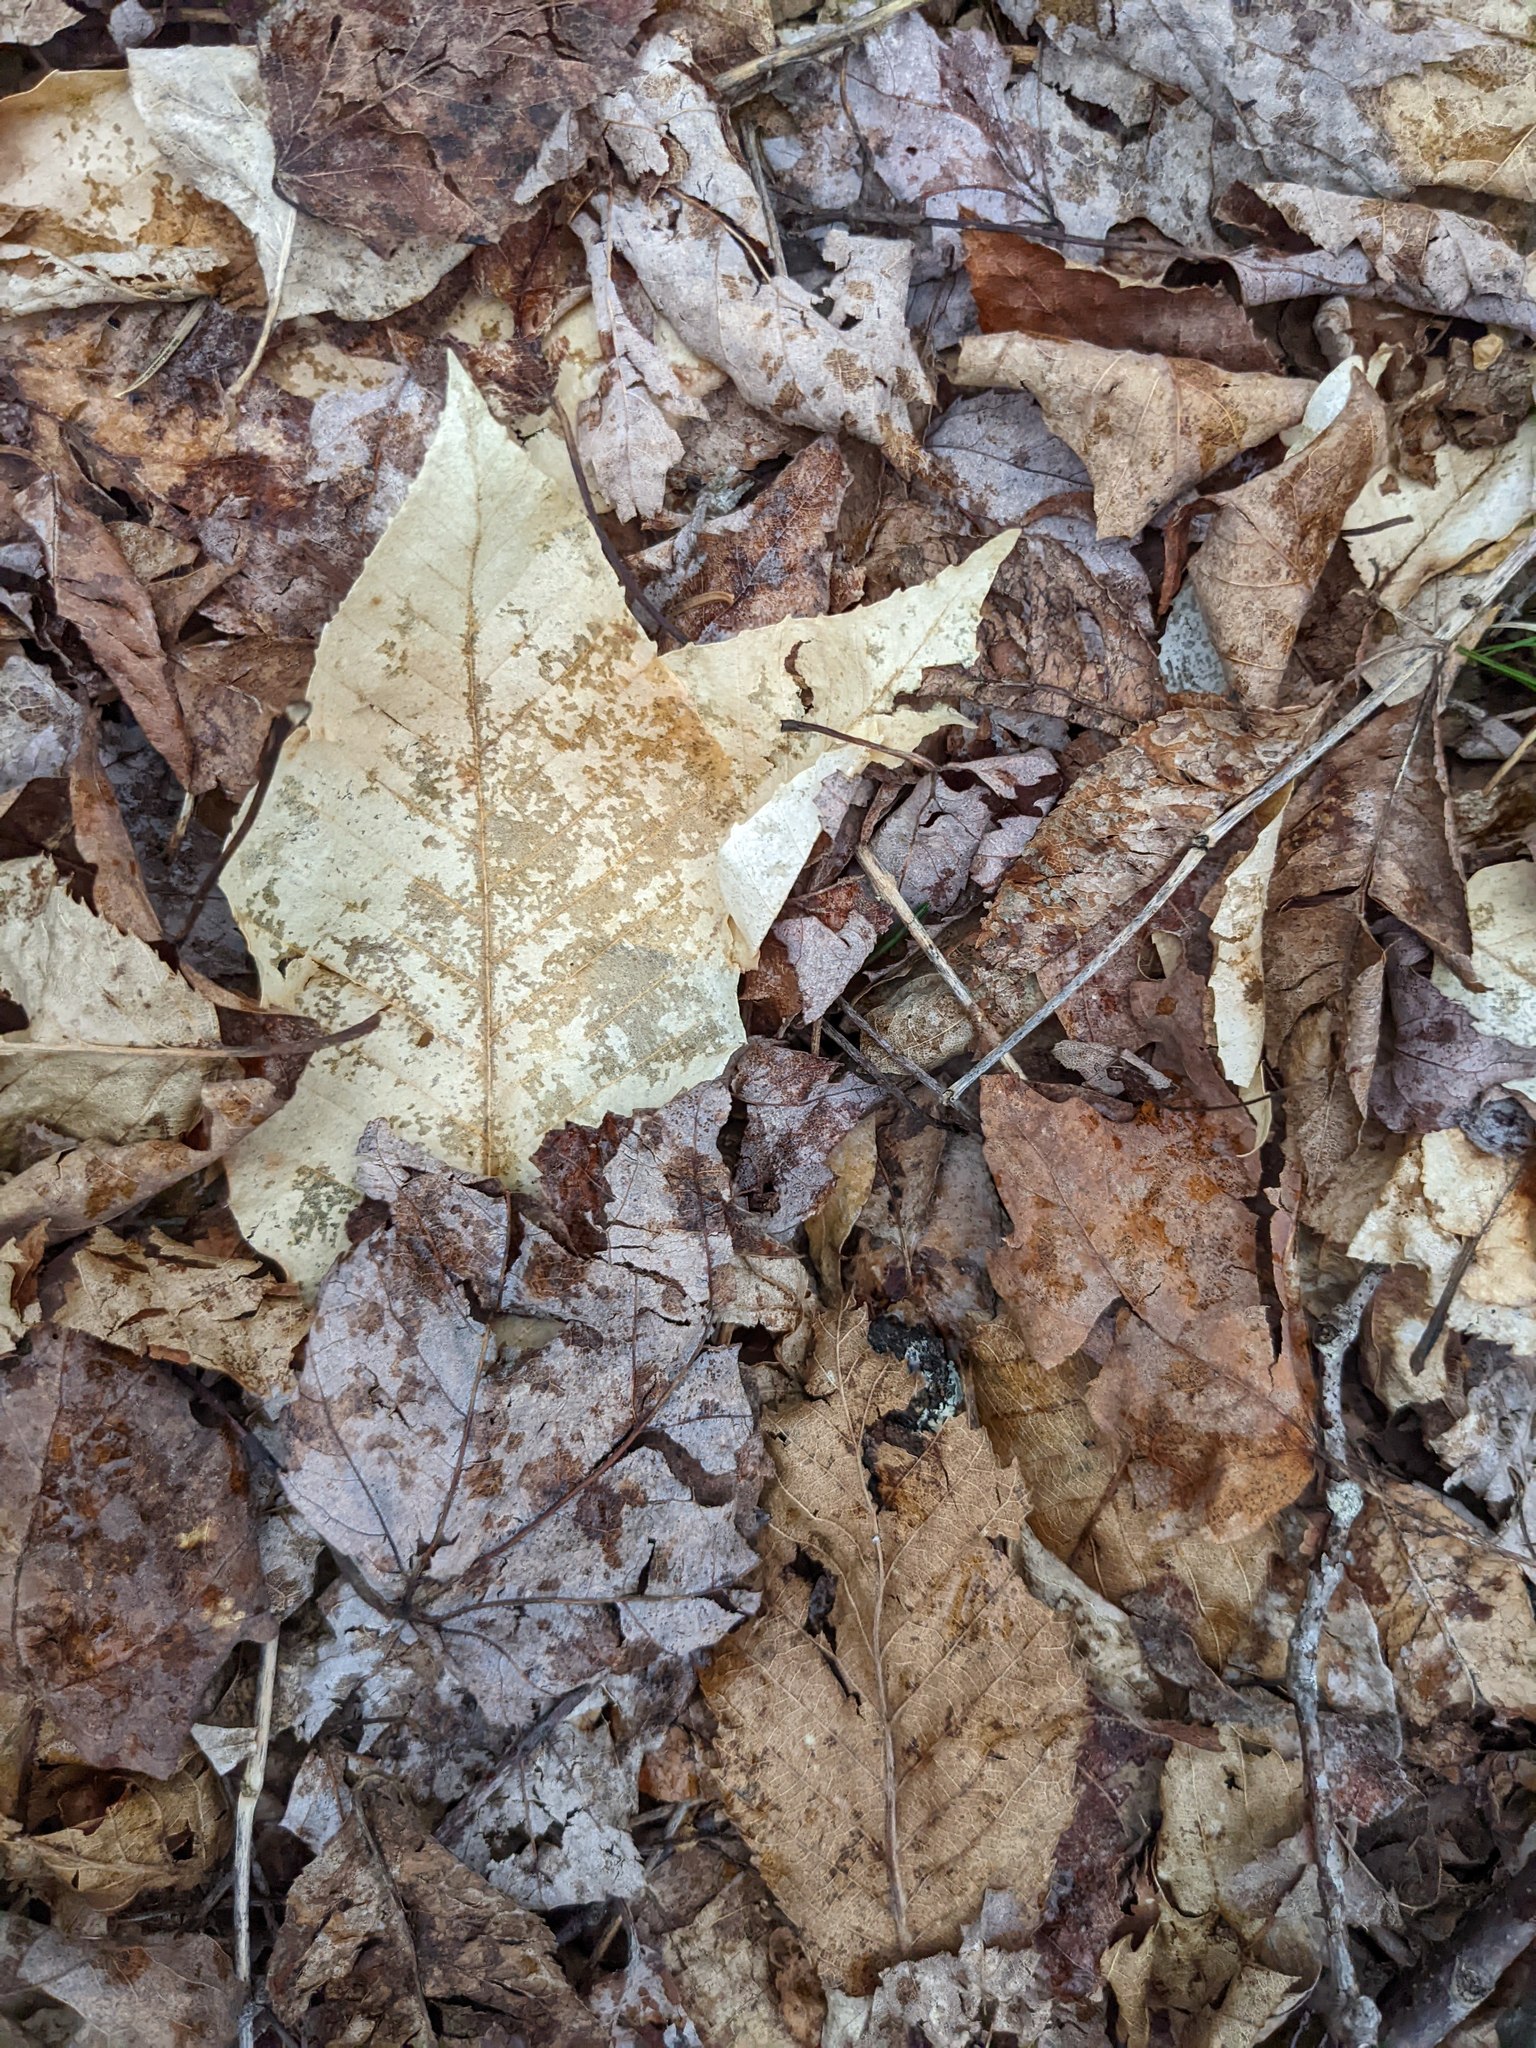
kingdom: Plantae
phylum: Tracheophyta
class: Magnoliopsida
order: Fagales
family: Fagaceae
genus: Fagus
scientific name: Fagus grandifolia
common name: American beech
